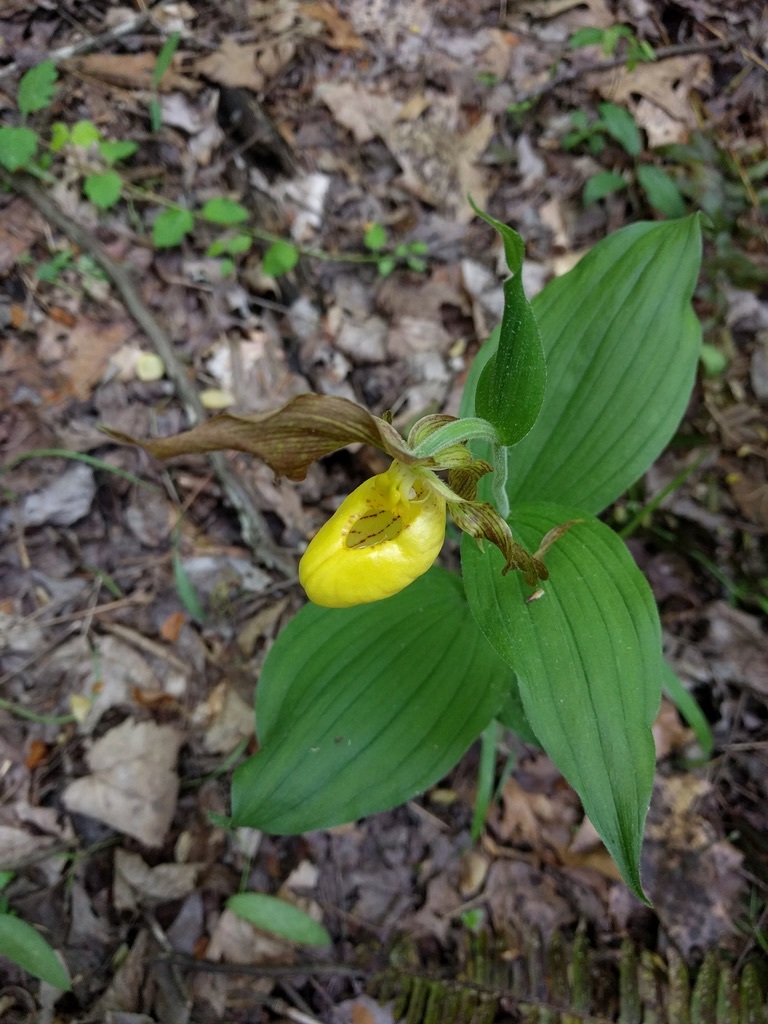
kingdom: Plantae
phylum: Tracheophyta
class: Liliopsida
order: Asparagales
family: Orchidaceae
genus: Cypripedium
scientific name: Cypripedium parviflorum
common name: American yellow lady's-slipper
